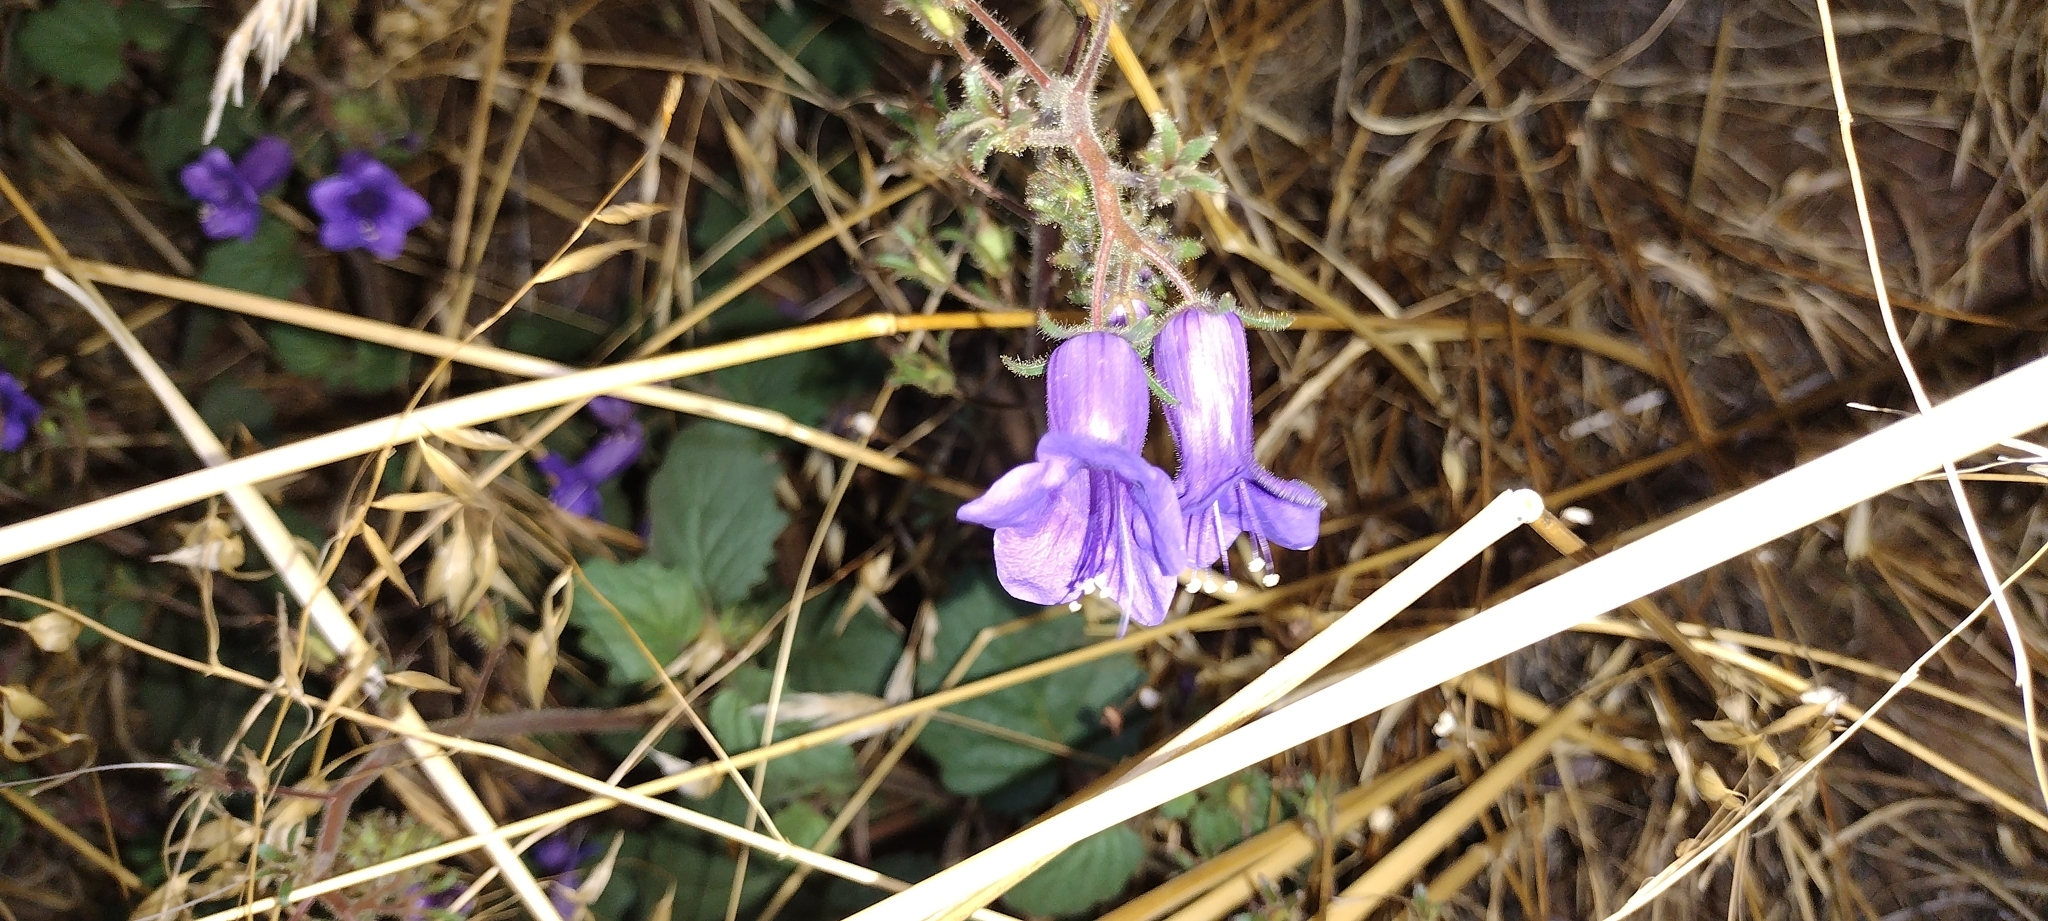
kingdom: Plantae
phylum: Tracheophyta
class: Magnoliopsida
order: Boraginales
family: Hydrophyllaceae
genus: Phacelia
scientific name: Phacelia minor
